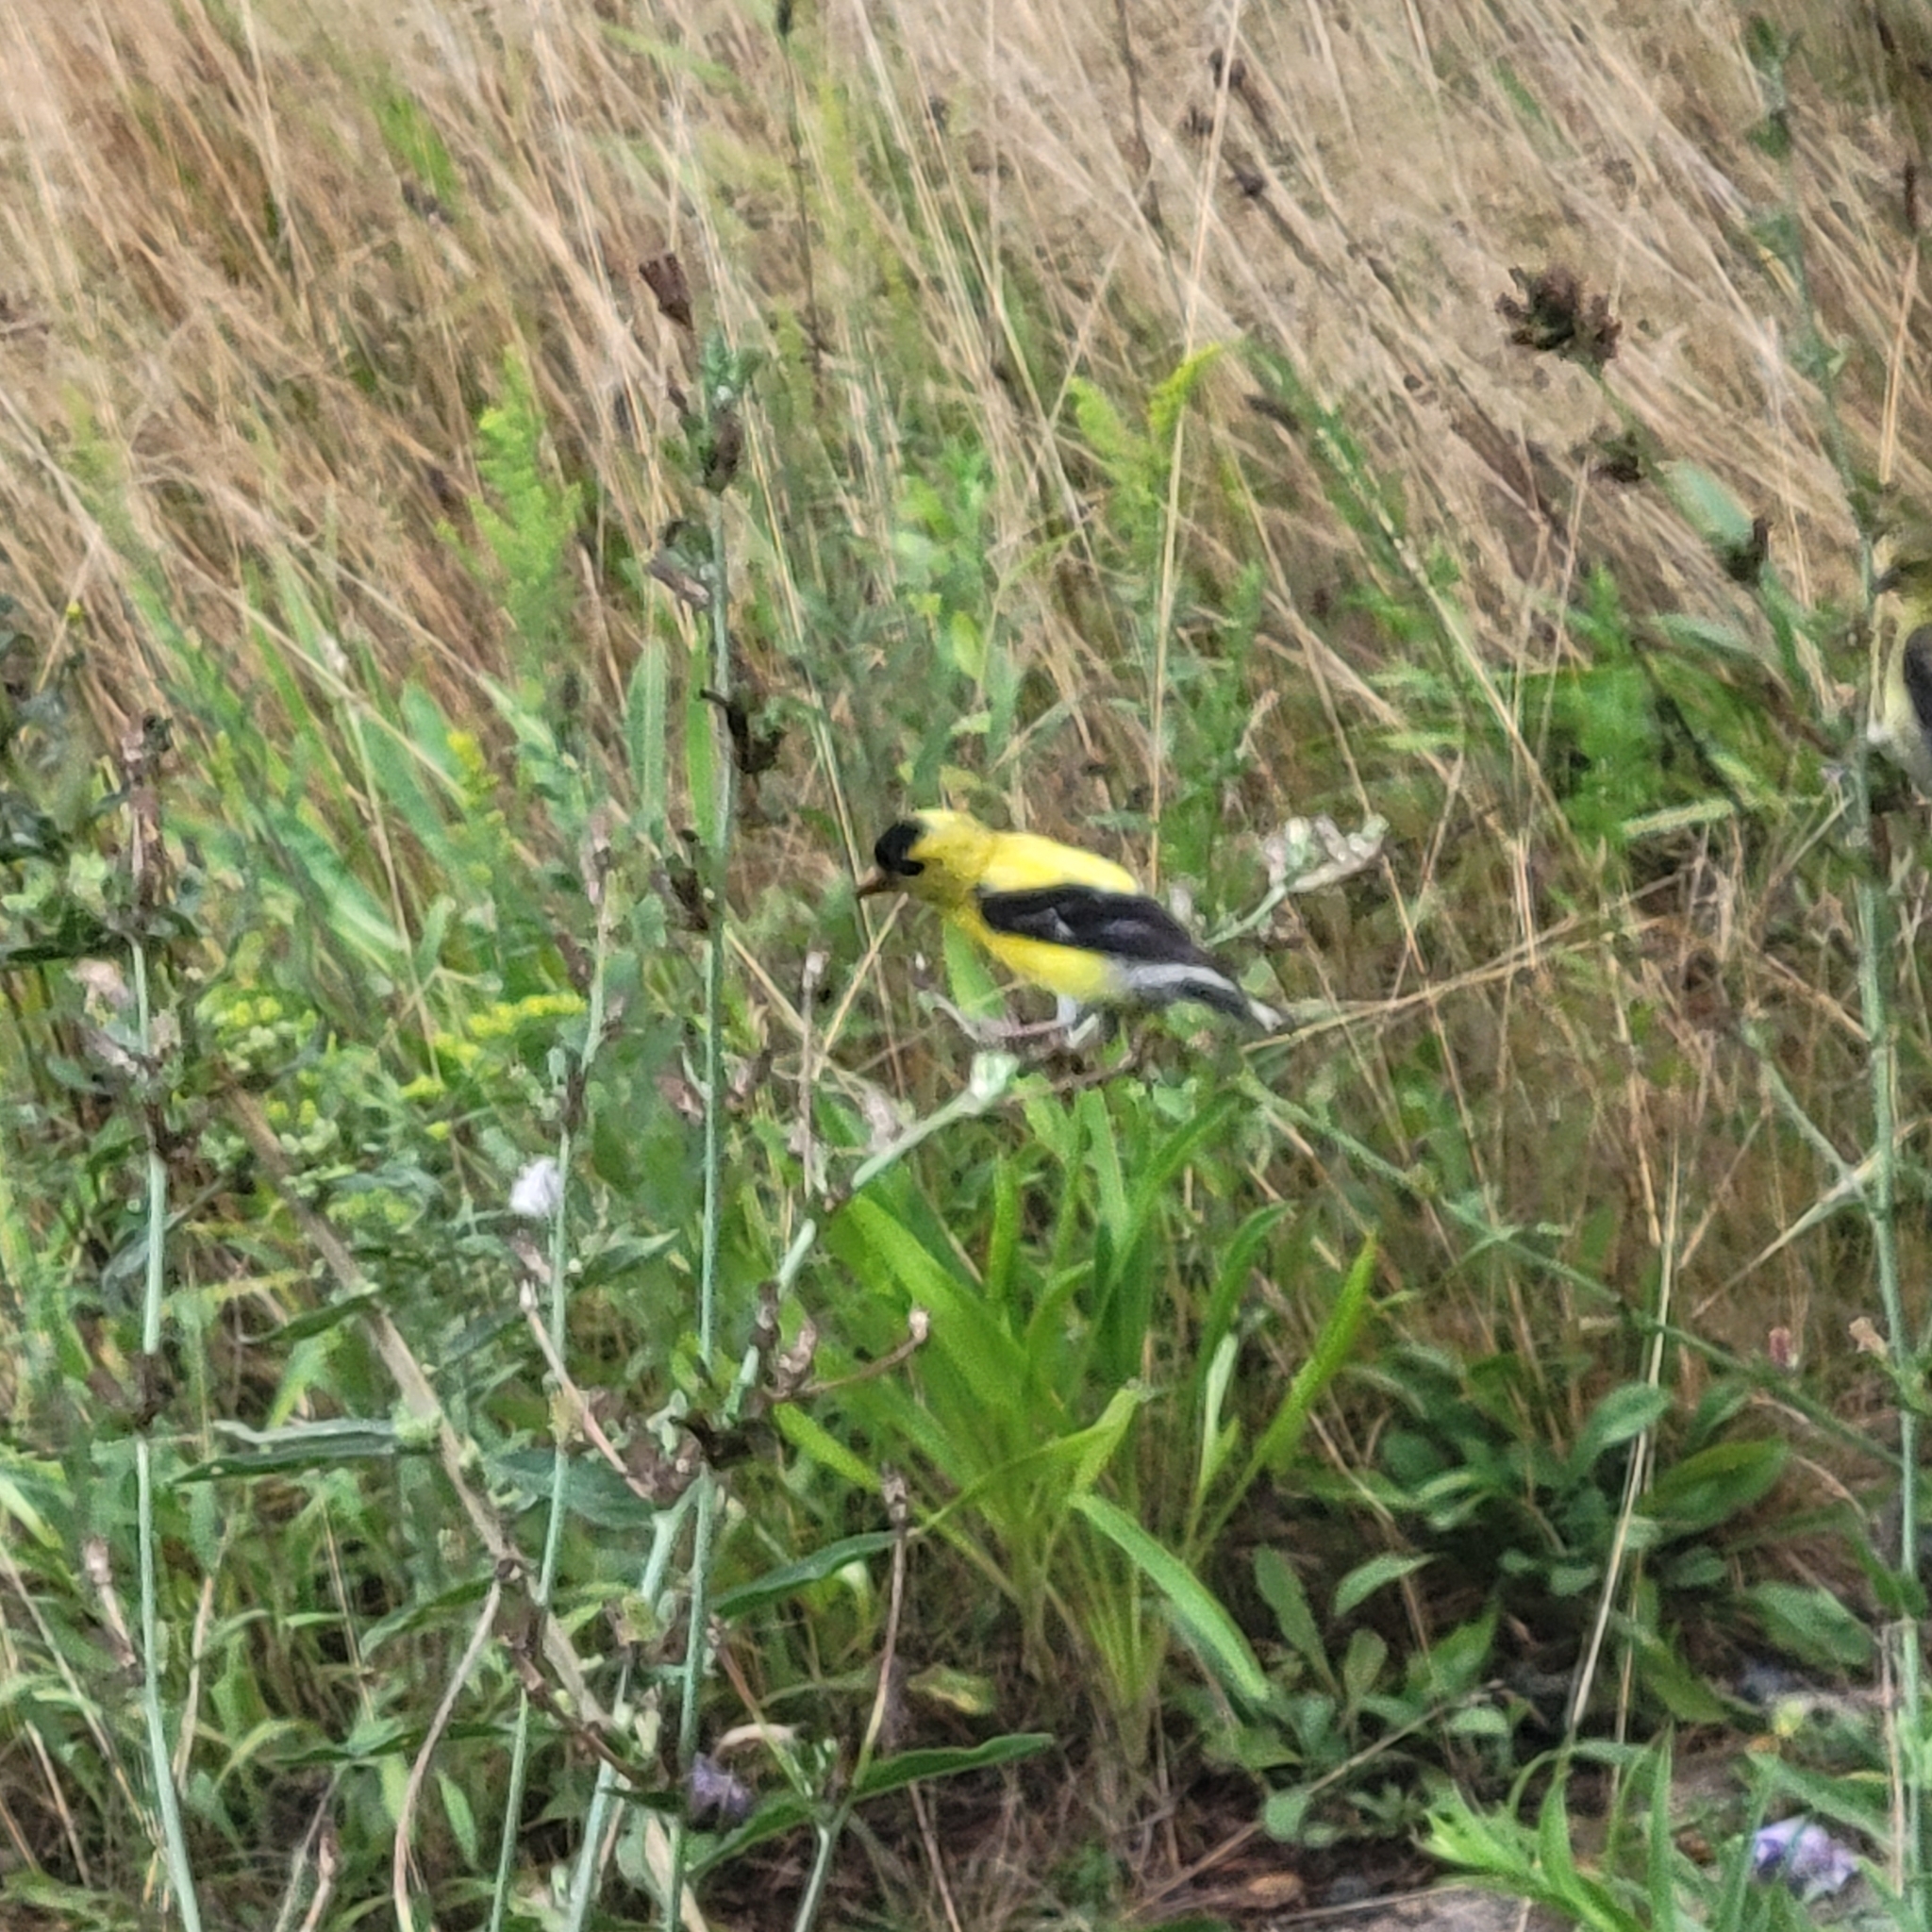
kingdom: Animalia
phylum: Chordata
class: Aves
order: Passeriformes
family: Fringillidae
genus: Spinus
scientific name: Spinus tristis
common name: American goldfinch
